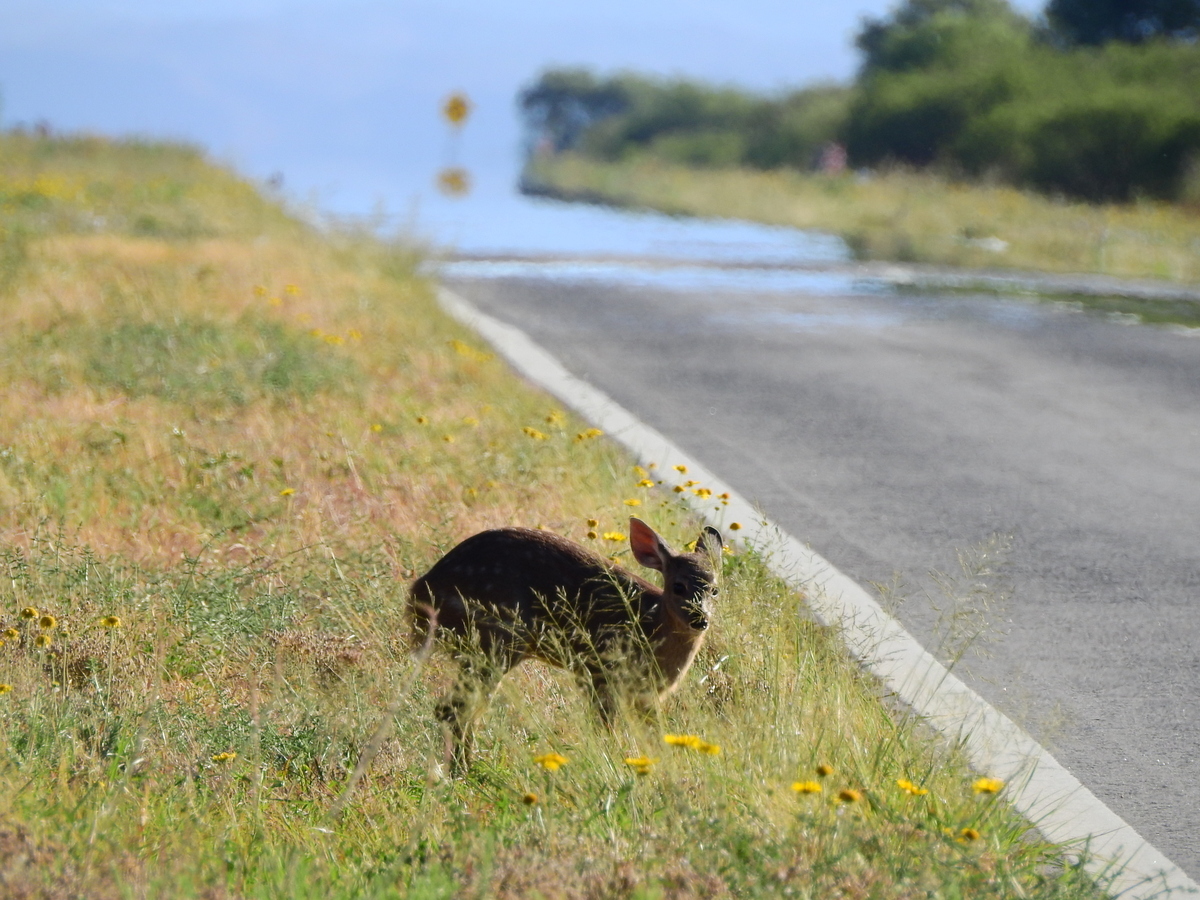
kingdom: Animalia
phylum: Chordata
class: Mammalia
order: Artiodactyla
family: Cervidae
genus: Mazama
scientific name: Mazama gouazoubira
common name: Gray brocket
